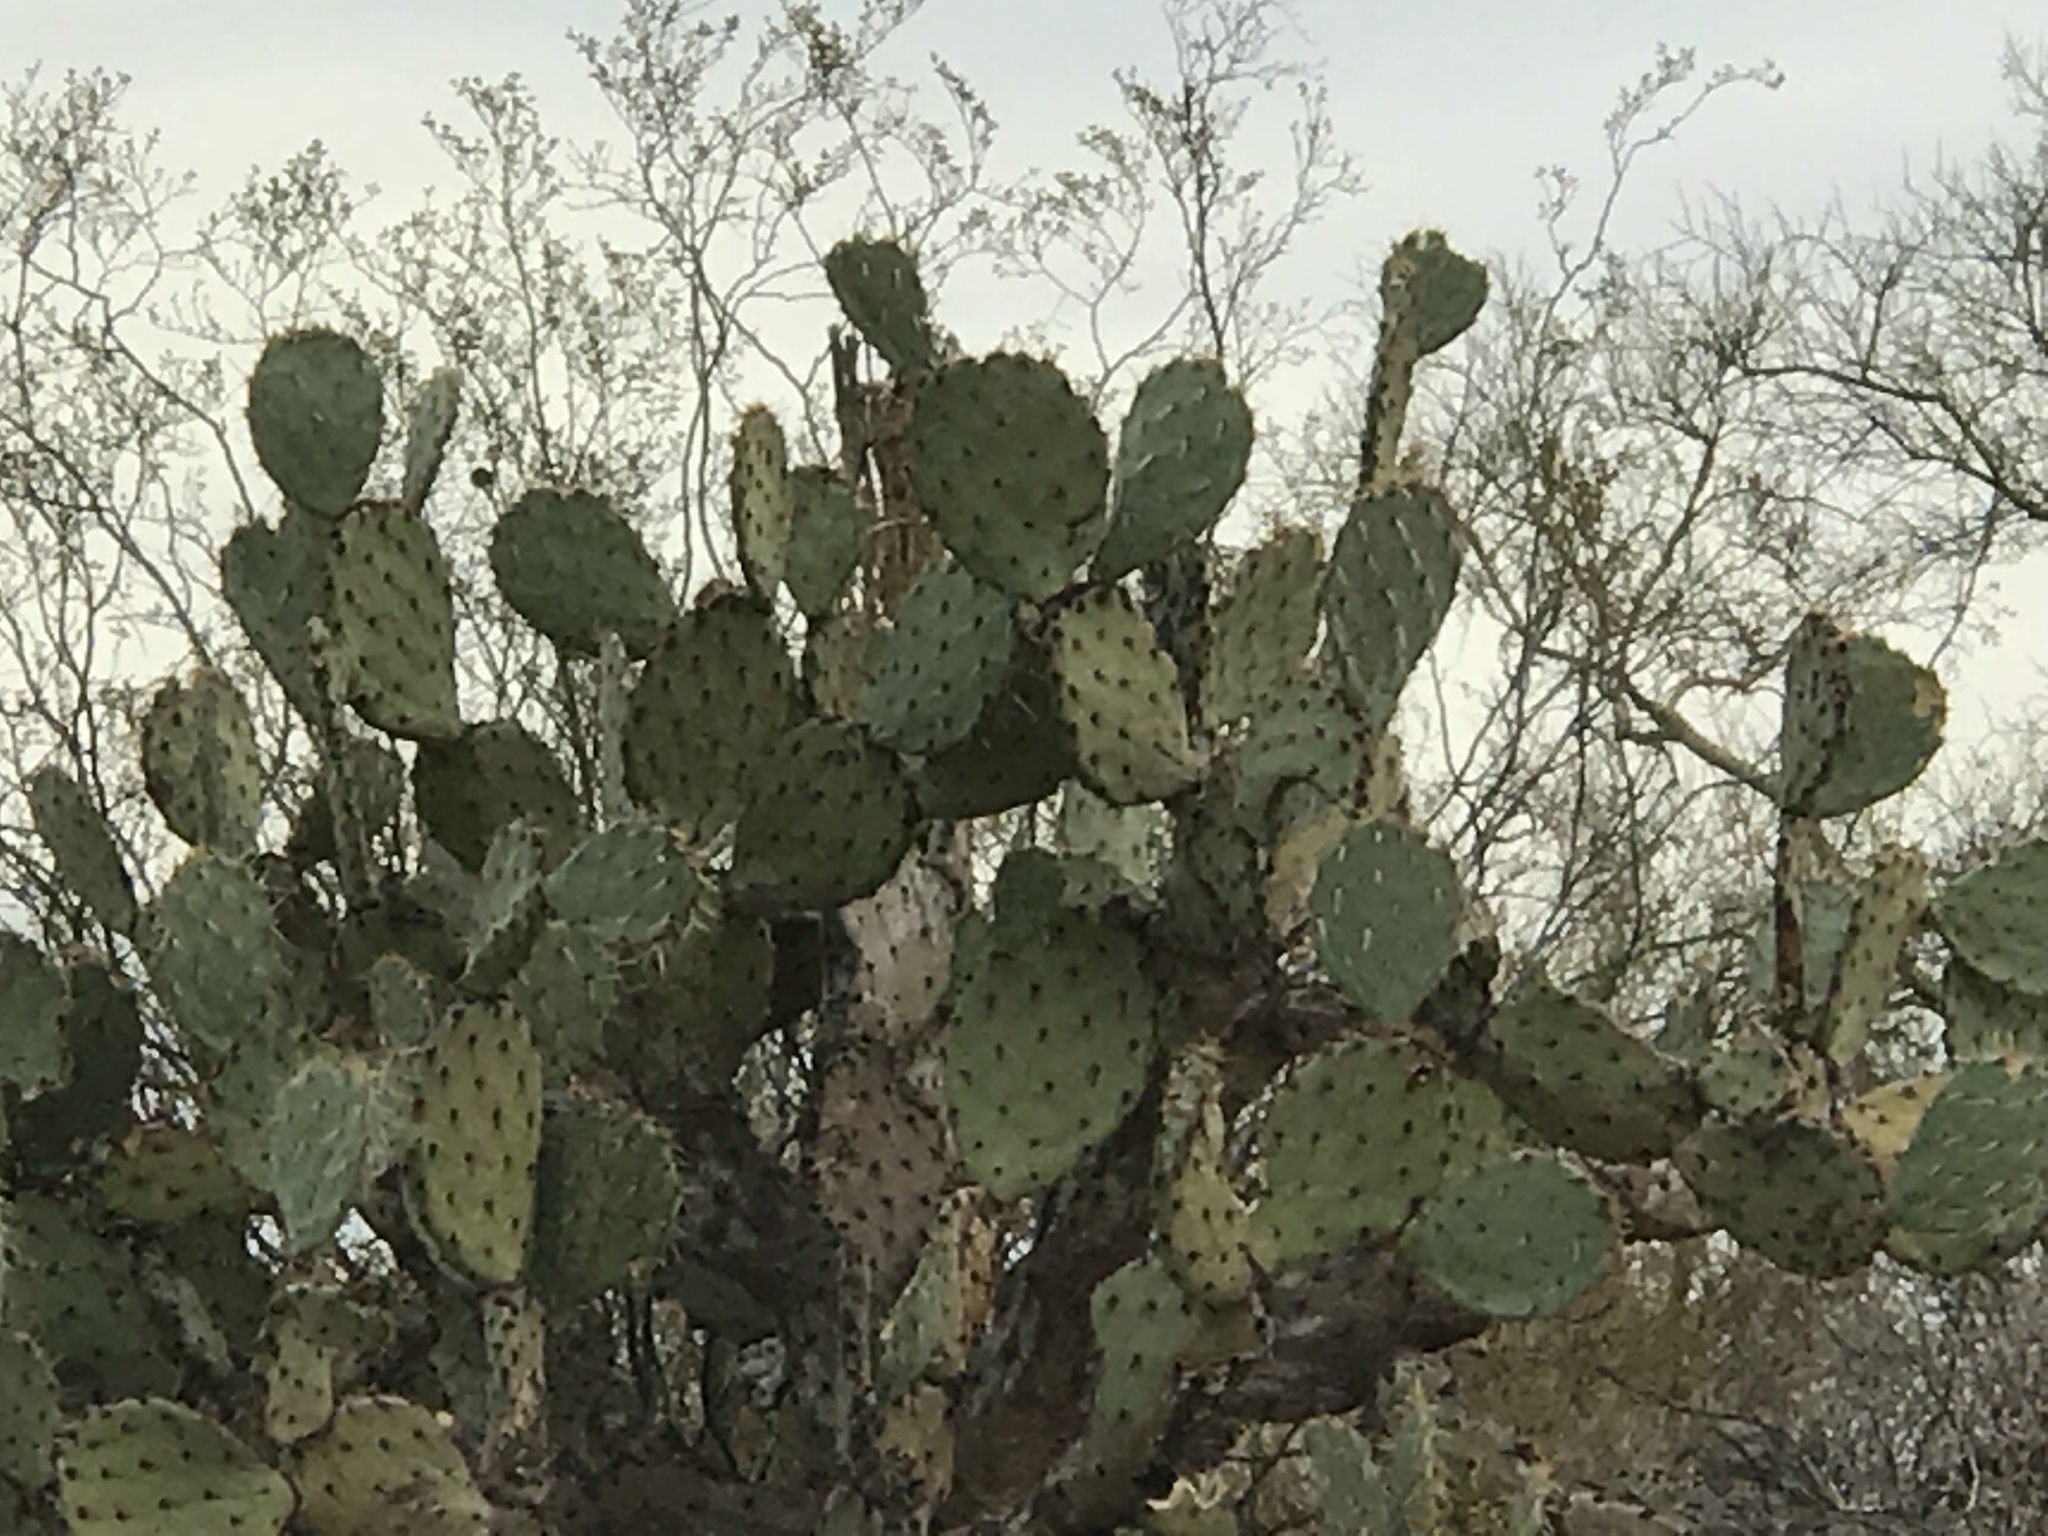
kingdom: Plantae
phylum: Tracheophyta
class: Magnoliopsida
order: Caryophyllales
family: Cactaceae
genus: Opuntia
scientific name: Opuntia engelmannii
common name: Cactus-apple
